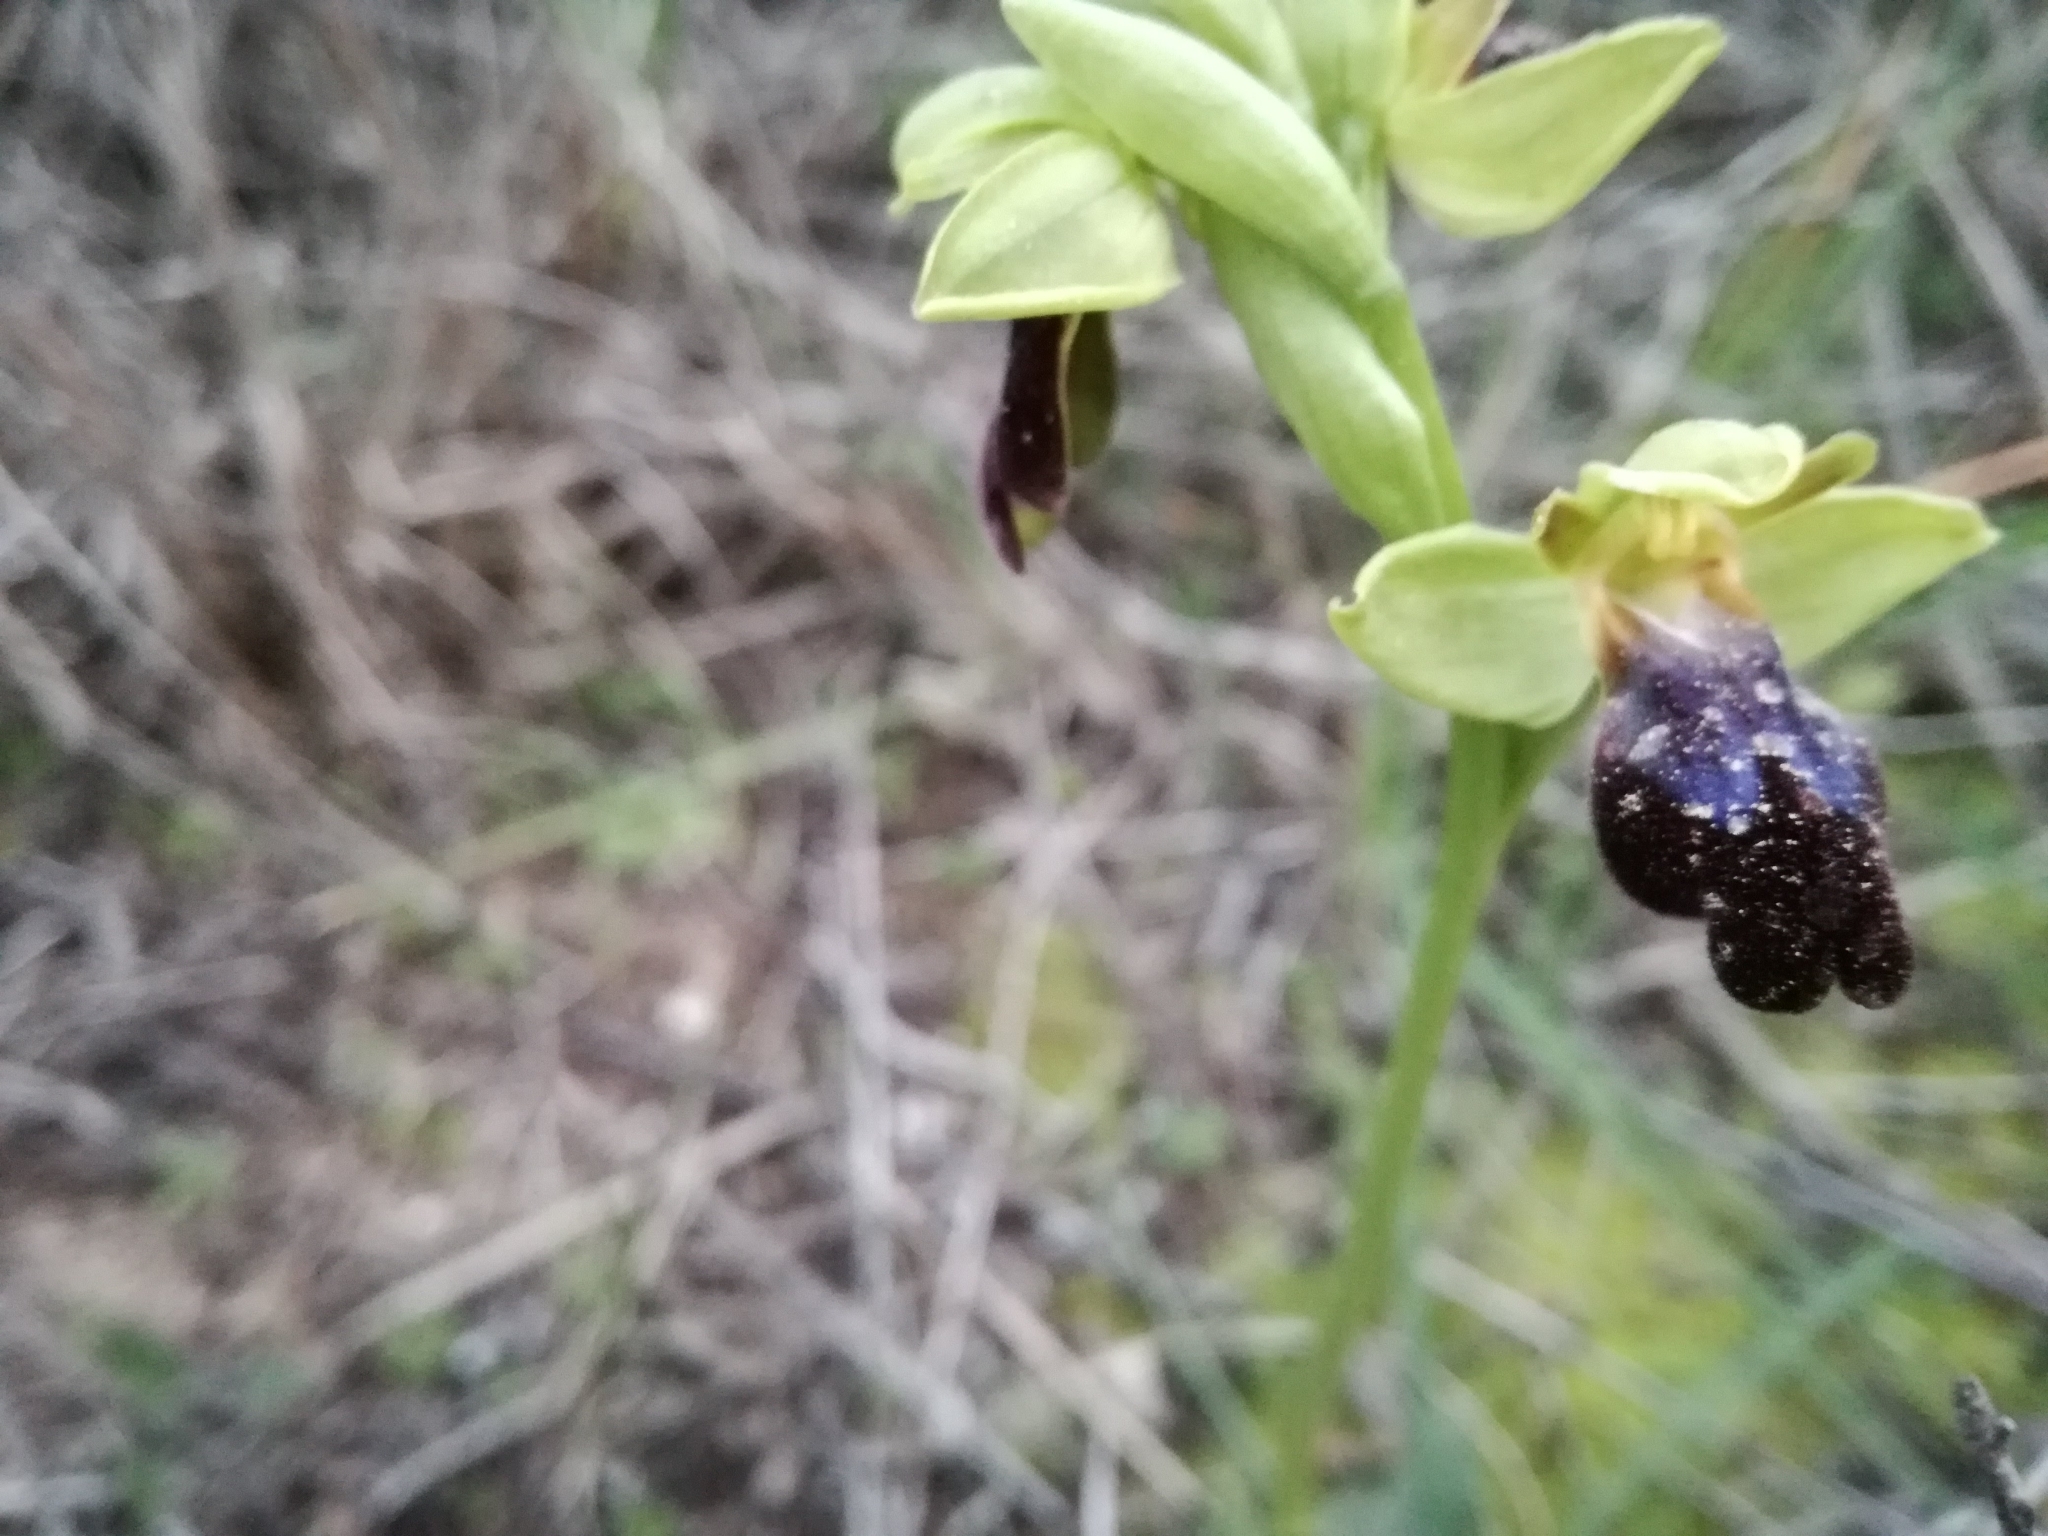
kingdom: Plantae
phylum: Tracheophyta
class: Liliopsida
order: Asparagales
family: Orchidaceae
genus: Ophrys
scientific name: Ophrys fusca
